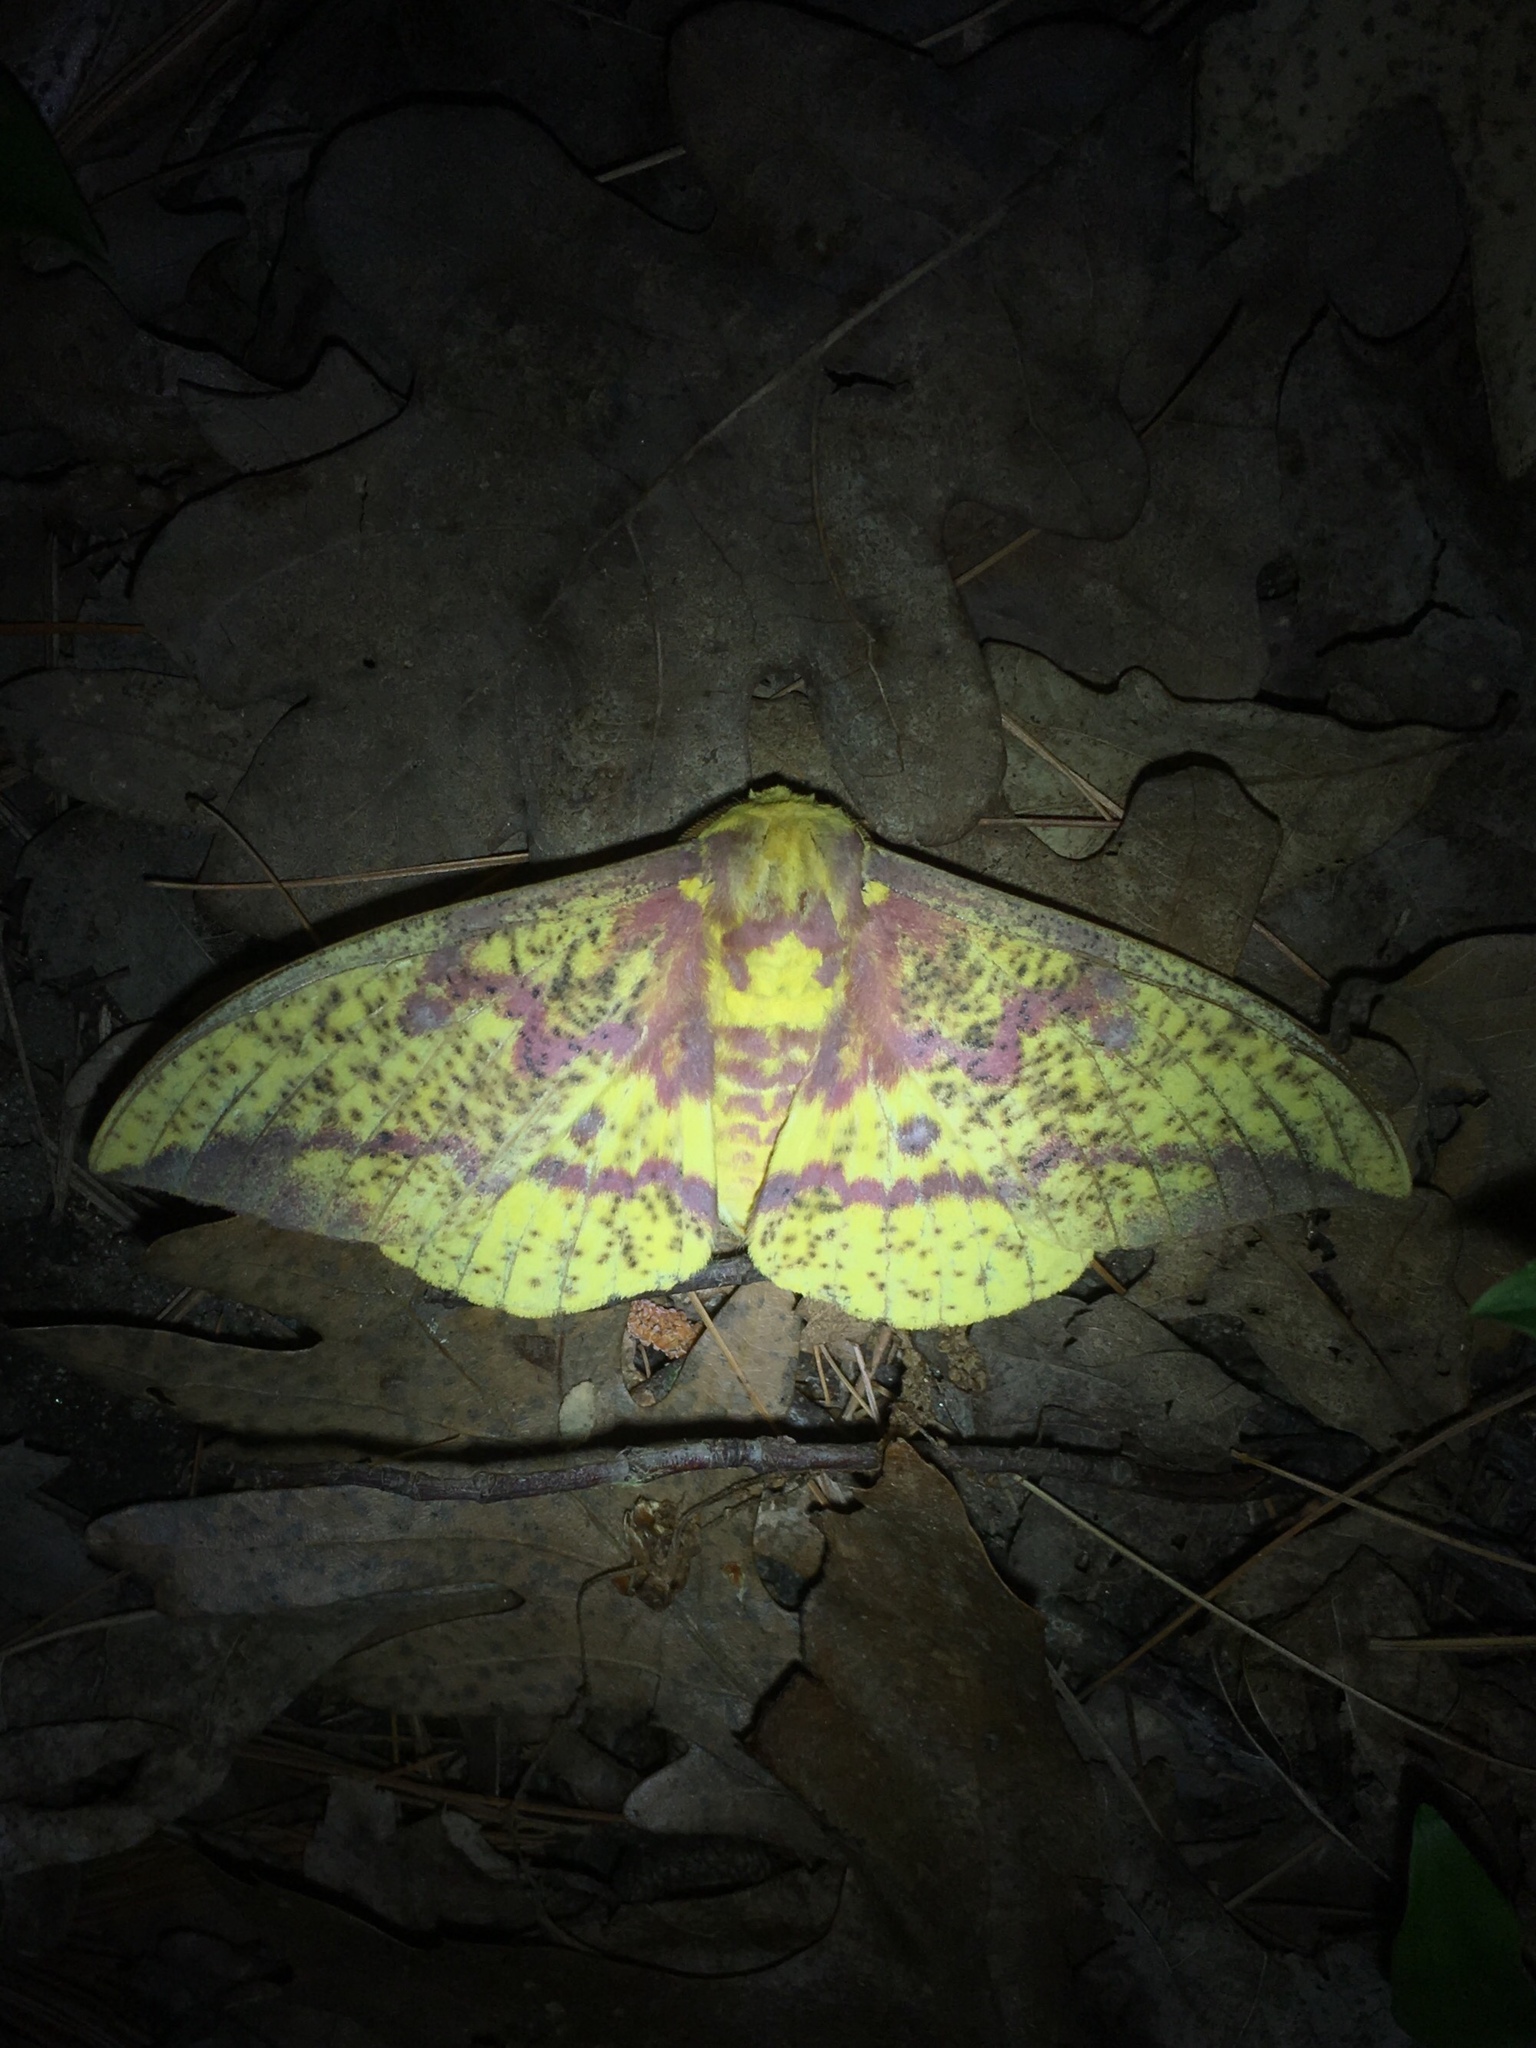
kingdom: Animalia
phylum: Arthropoda
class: Insecta
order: Lepidoptera
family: Saturniidae
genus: Eacles
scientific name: Eacles
